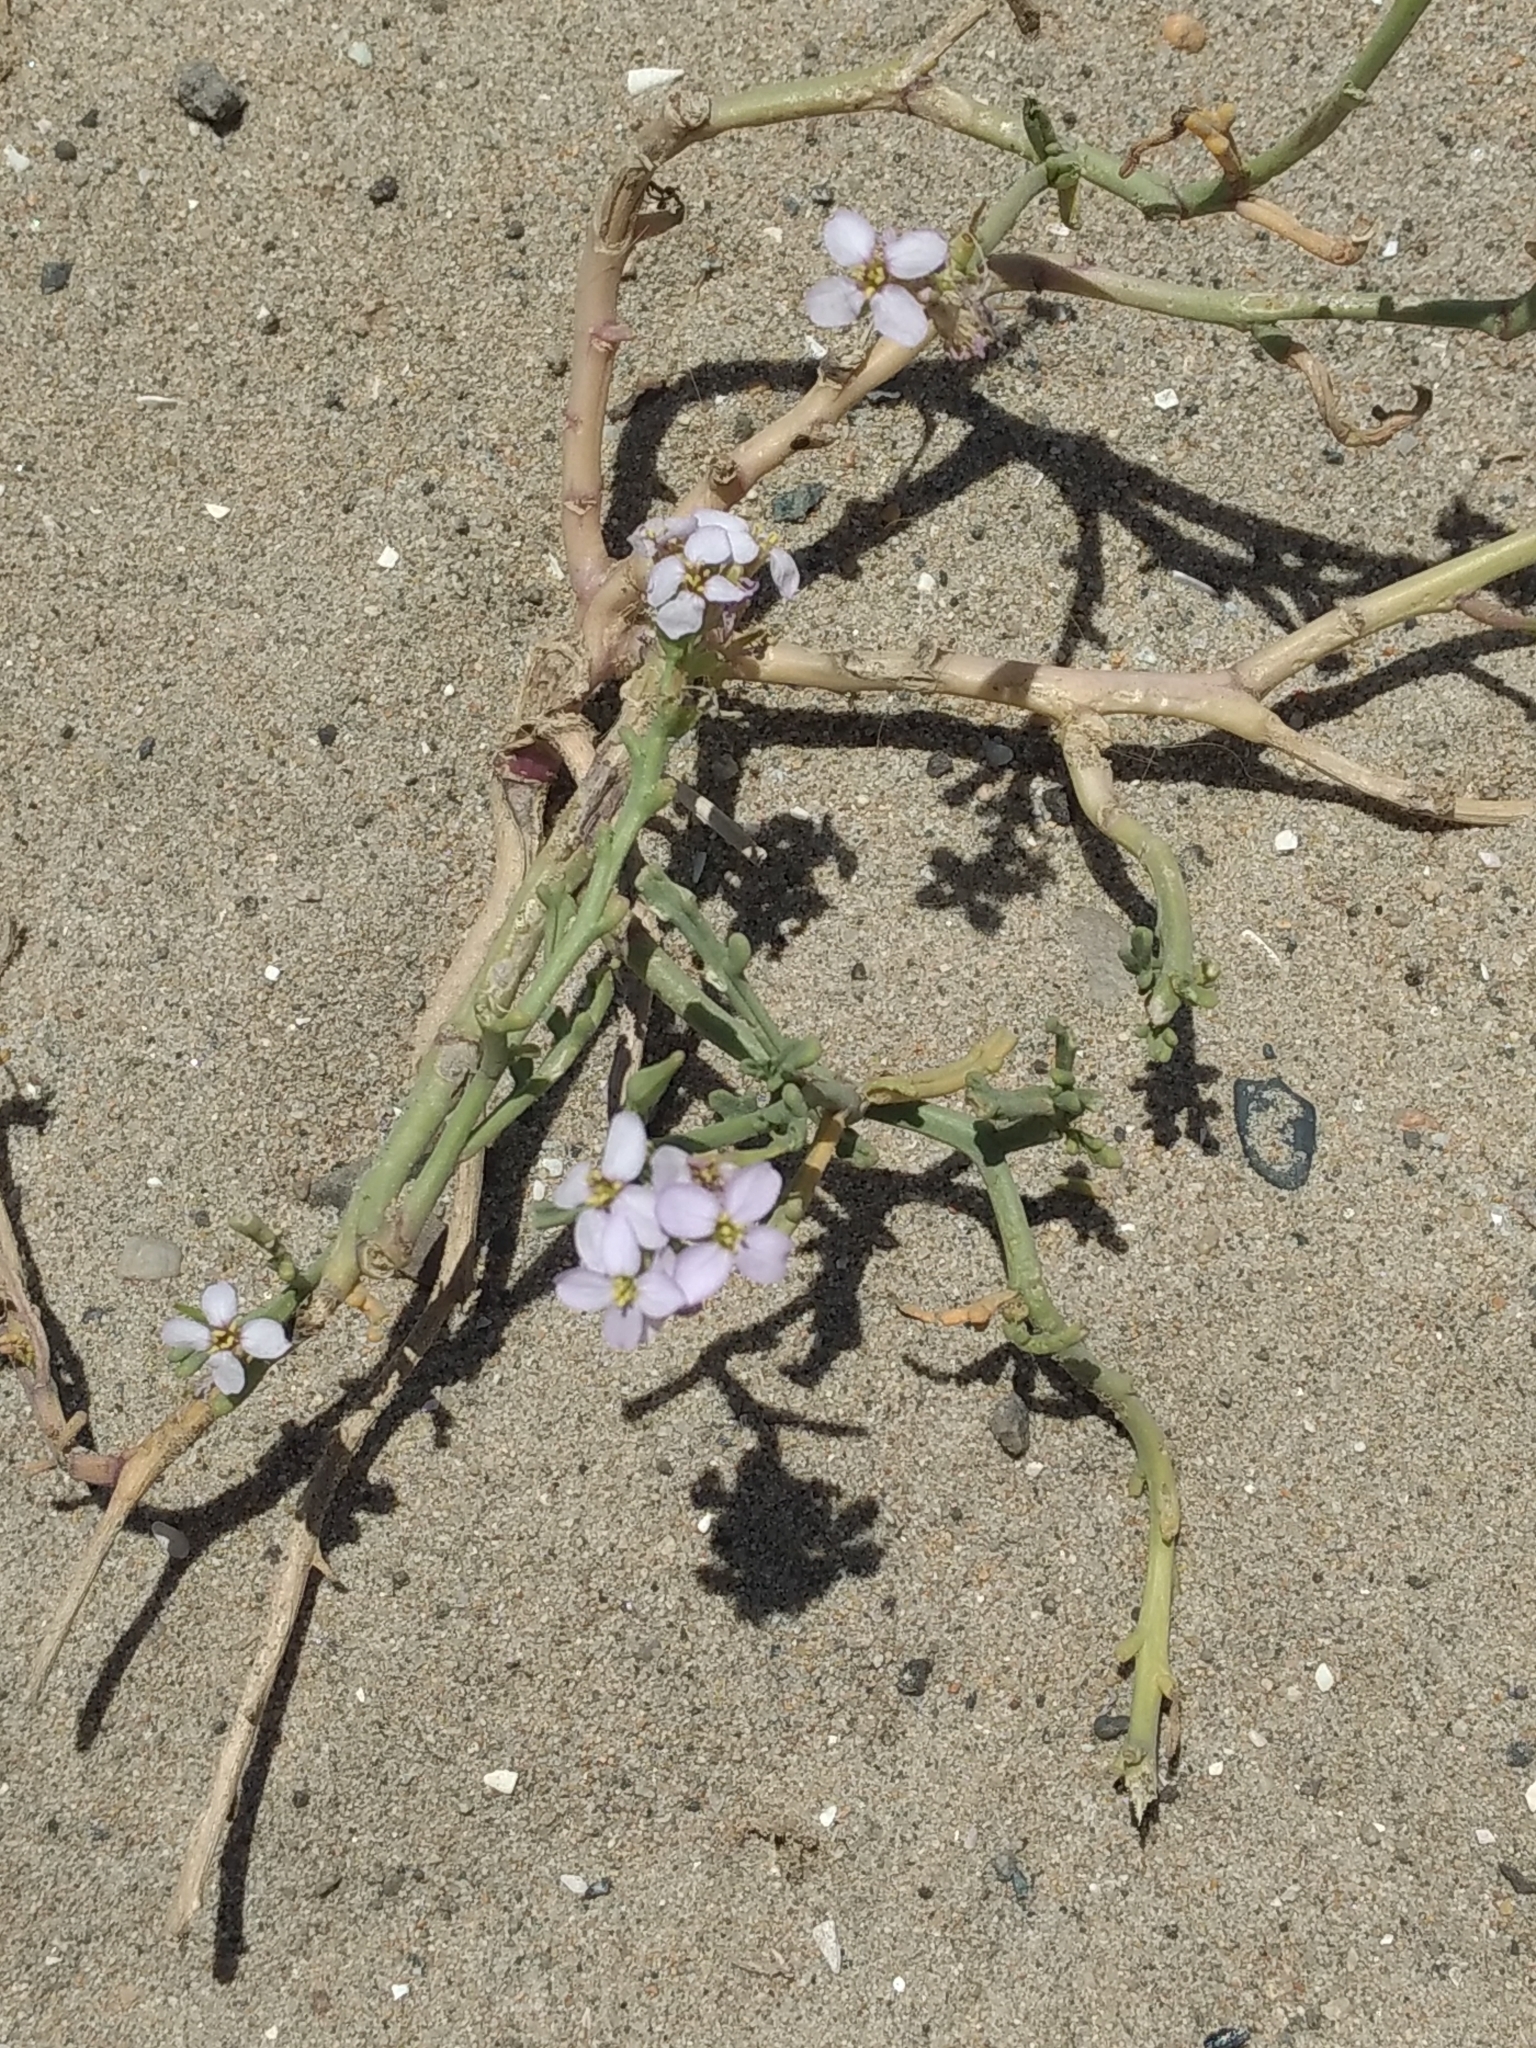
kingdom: Plantae
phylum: Tracheophyta
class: Magnoliopsida
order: Brassicales
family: Brassicaceae
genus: Cakile
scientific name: Cakile maritima
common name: Sea rocket
